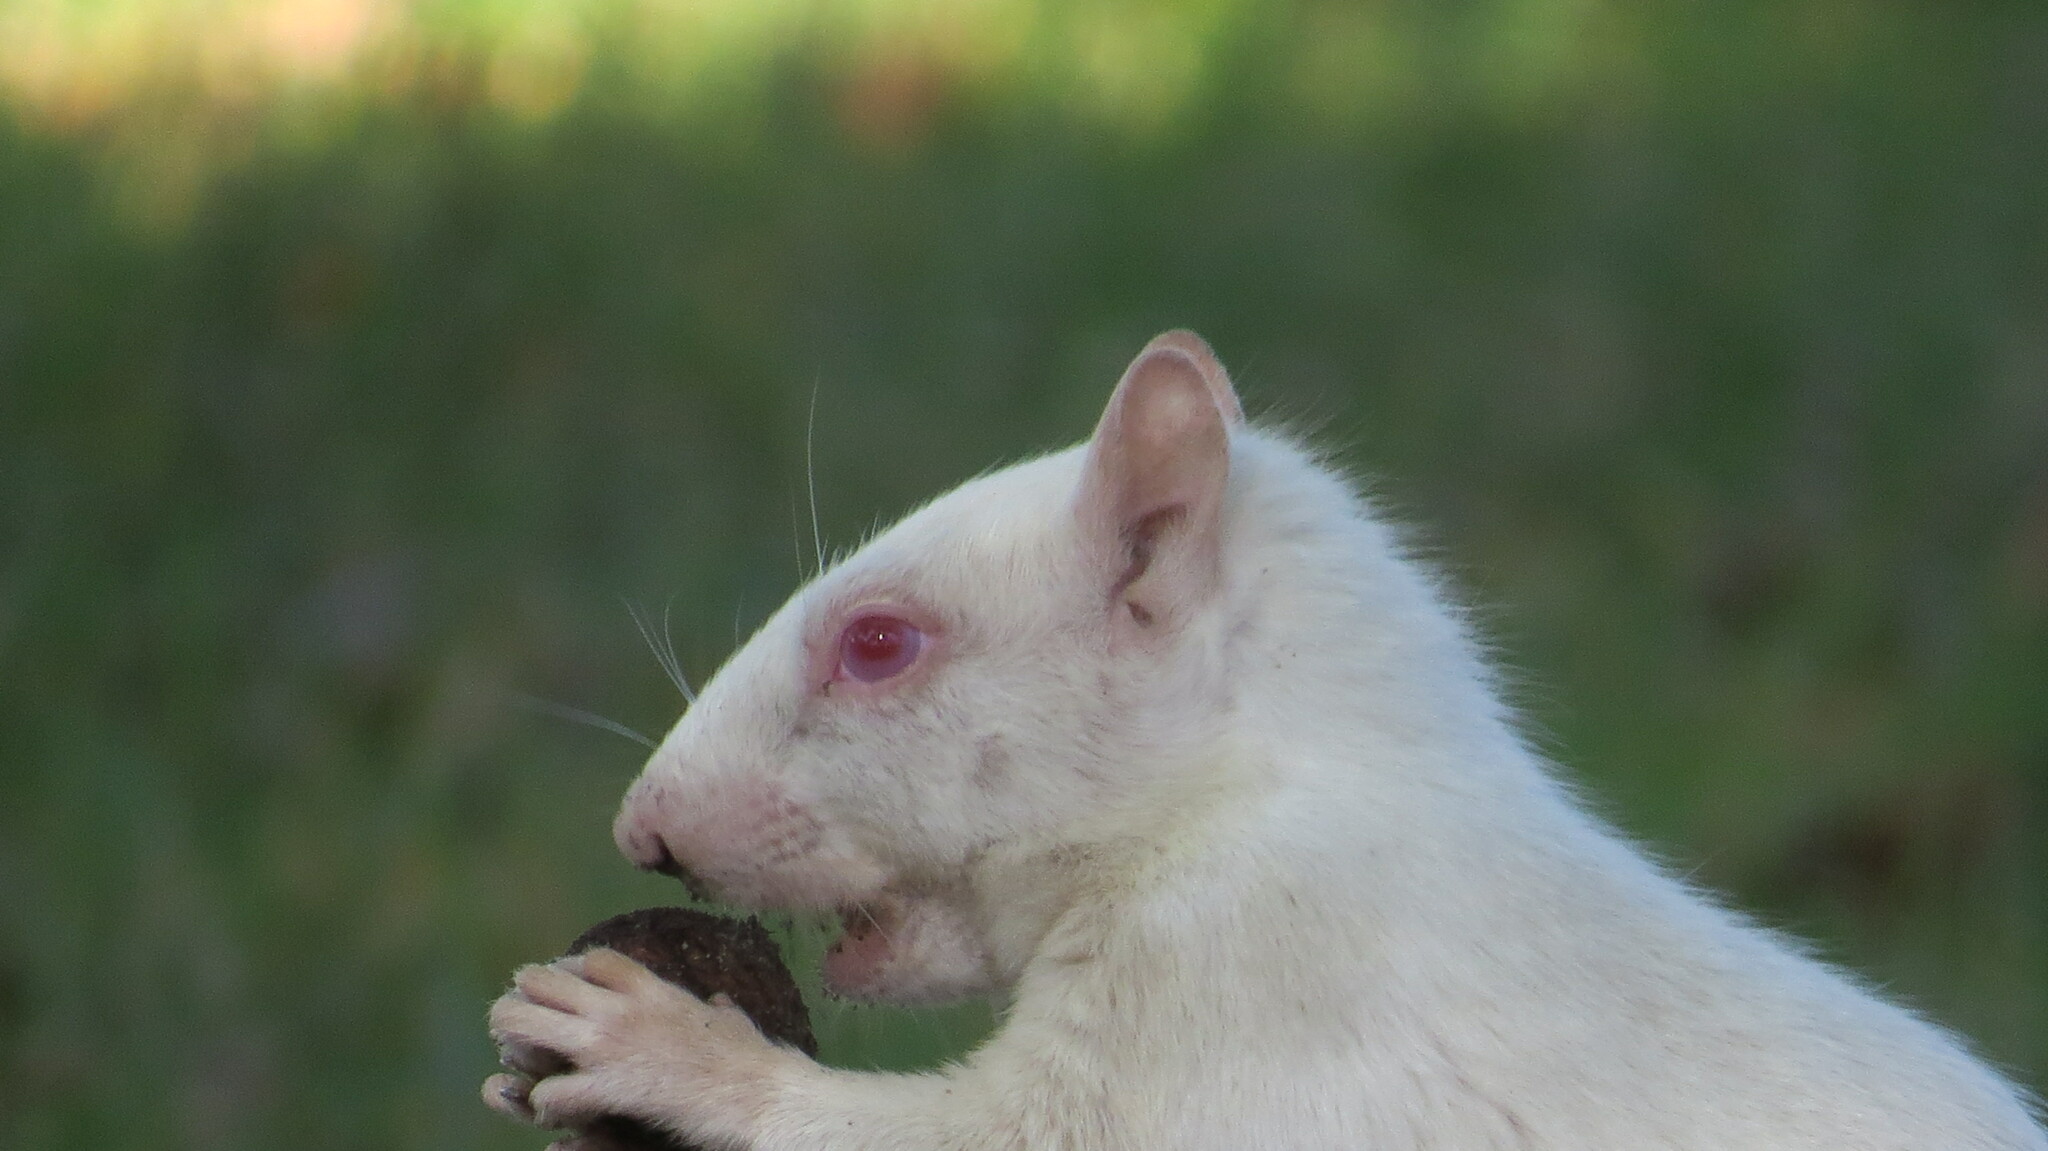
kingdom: Animalia
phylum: Chordata
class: Mammalia
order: Rodentia
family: Sciuridae
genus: Sciurus
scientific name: Sciurus carolinensis
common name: Eastern gray squirrel
